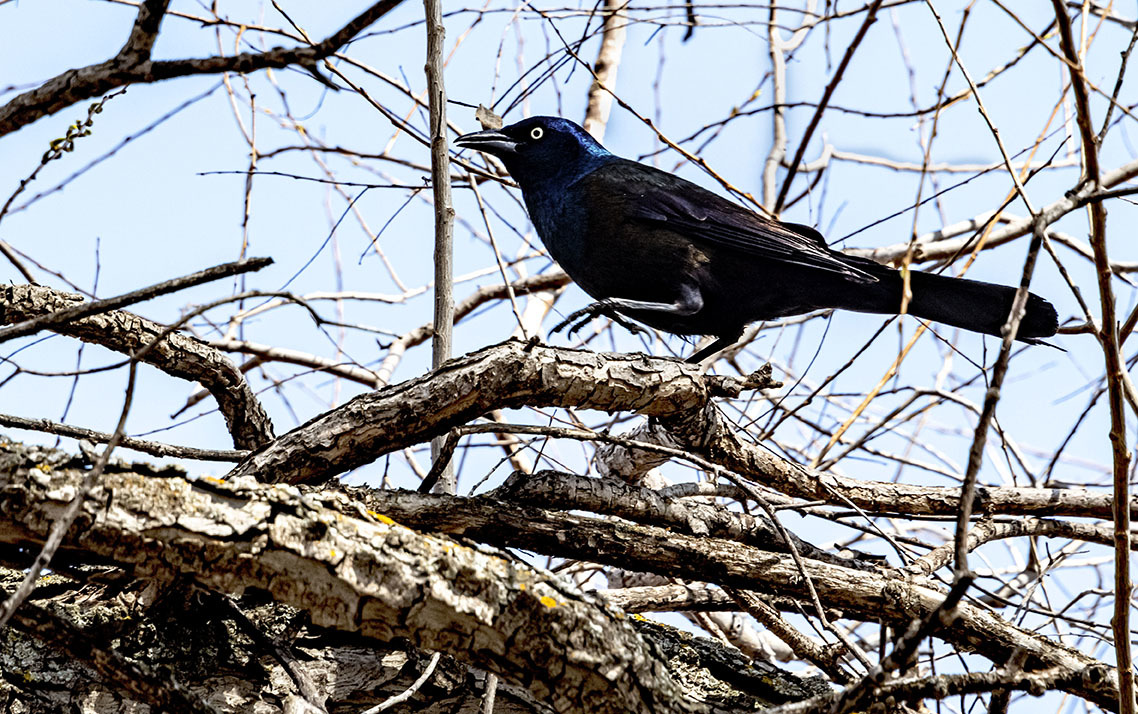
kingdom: Animalia
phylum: Chordata
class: Aves
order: Passeriformes
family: Icteridae
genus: Quiscalus
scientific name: Quiscalus quiscula
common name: Common grackle
